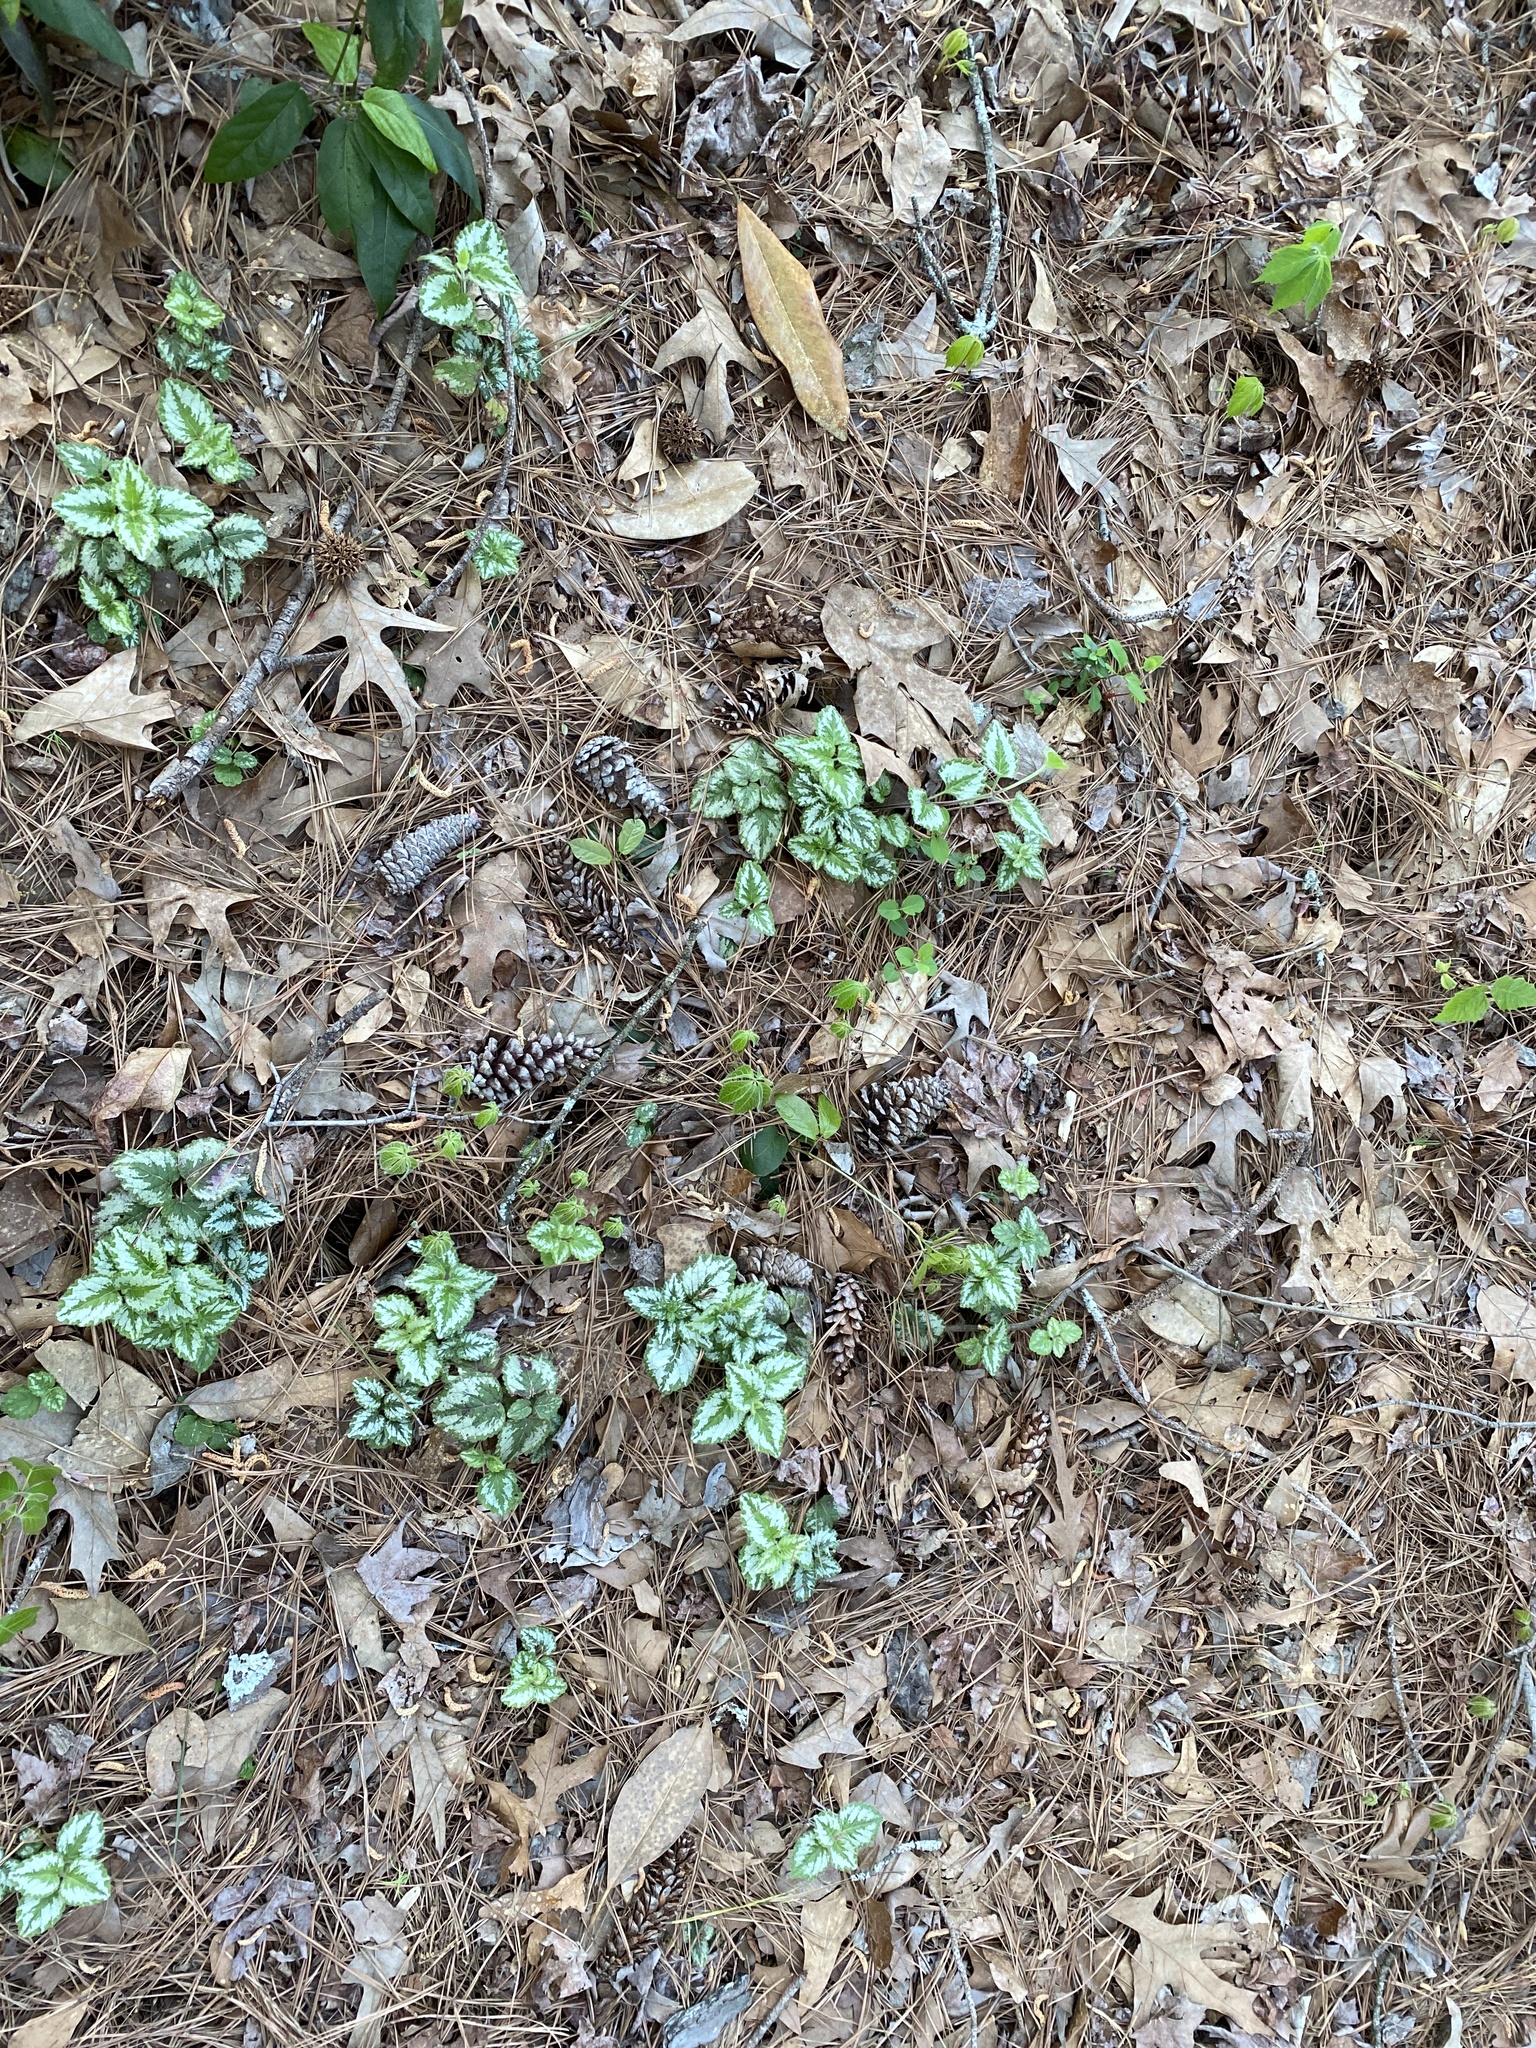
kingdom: Plantae
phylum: Tracheophyta
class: Magnoliopsida
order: Lamiales
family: Lamiaceae
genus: Lamium
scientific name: Lamium galeobdolon
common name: Yellow archangel
